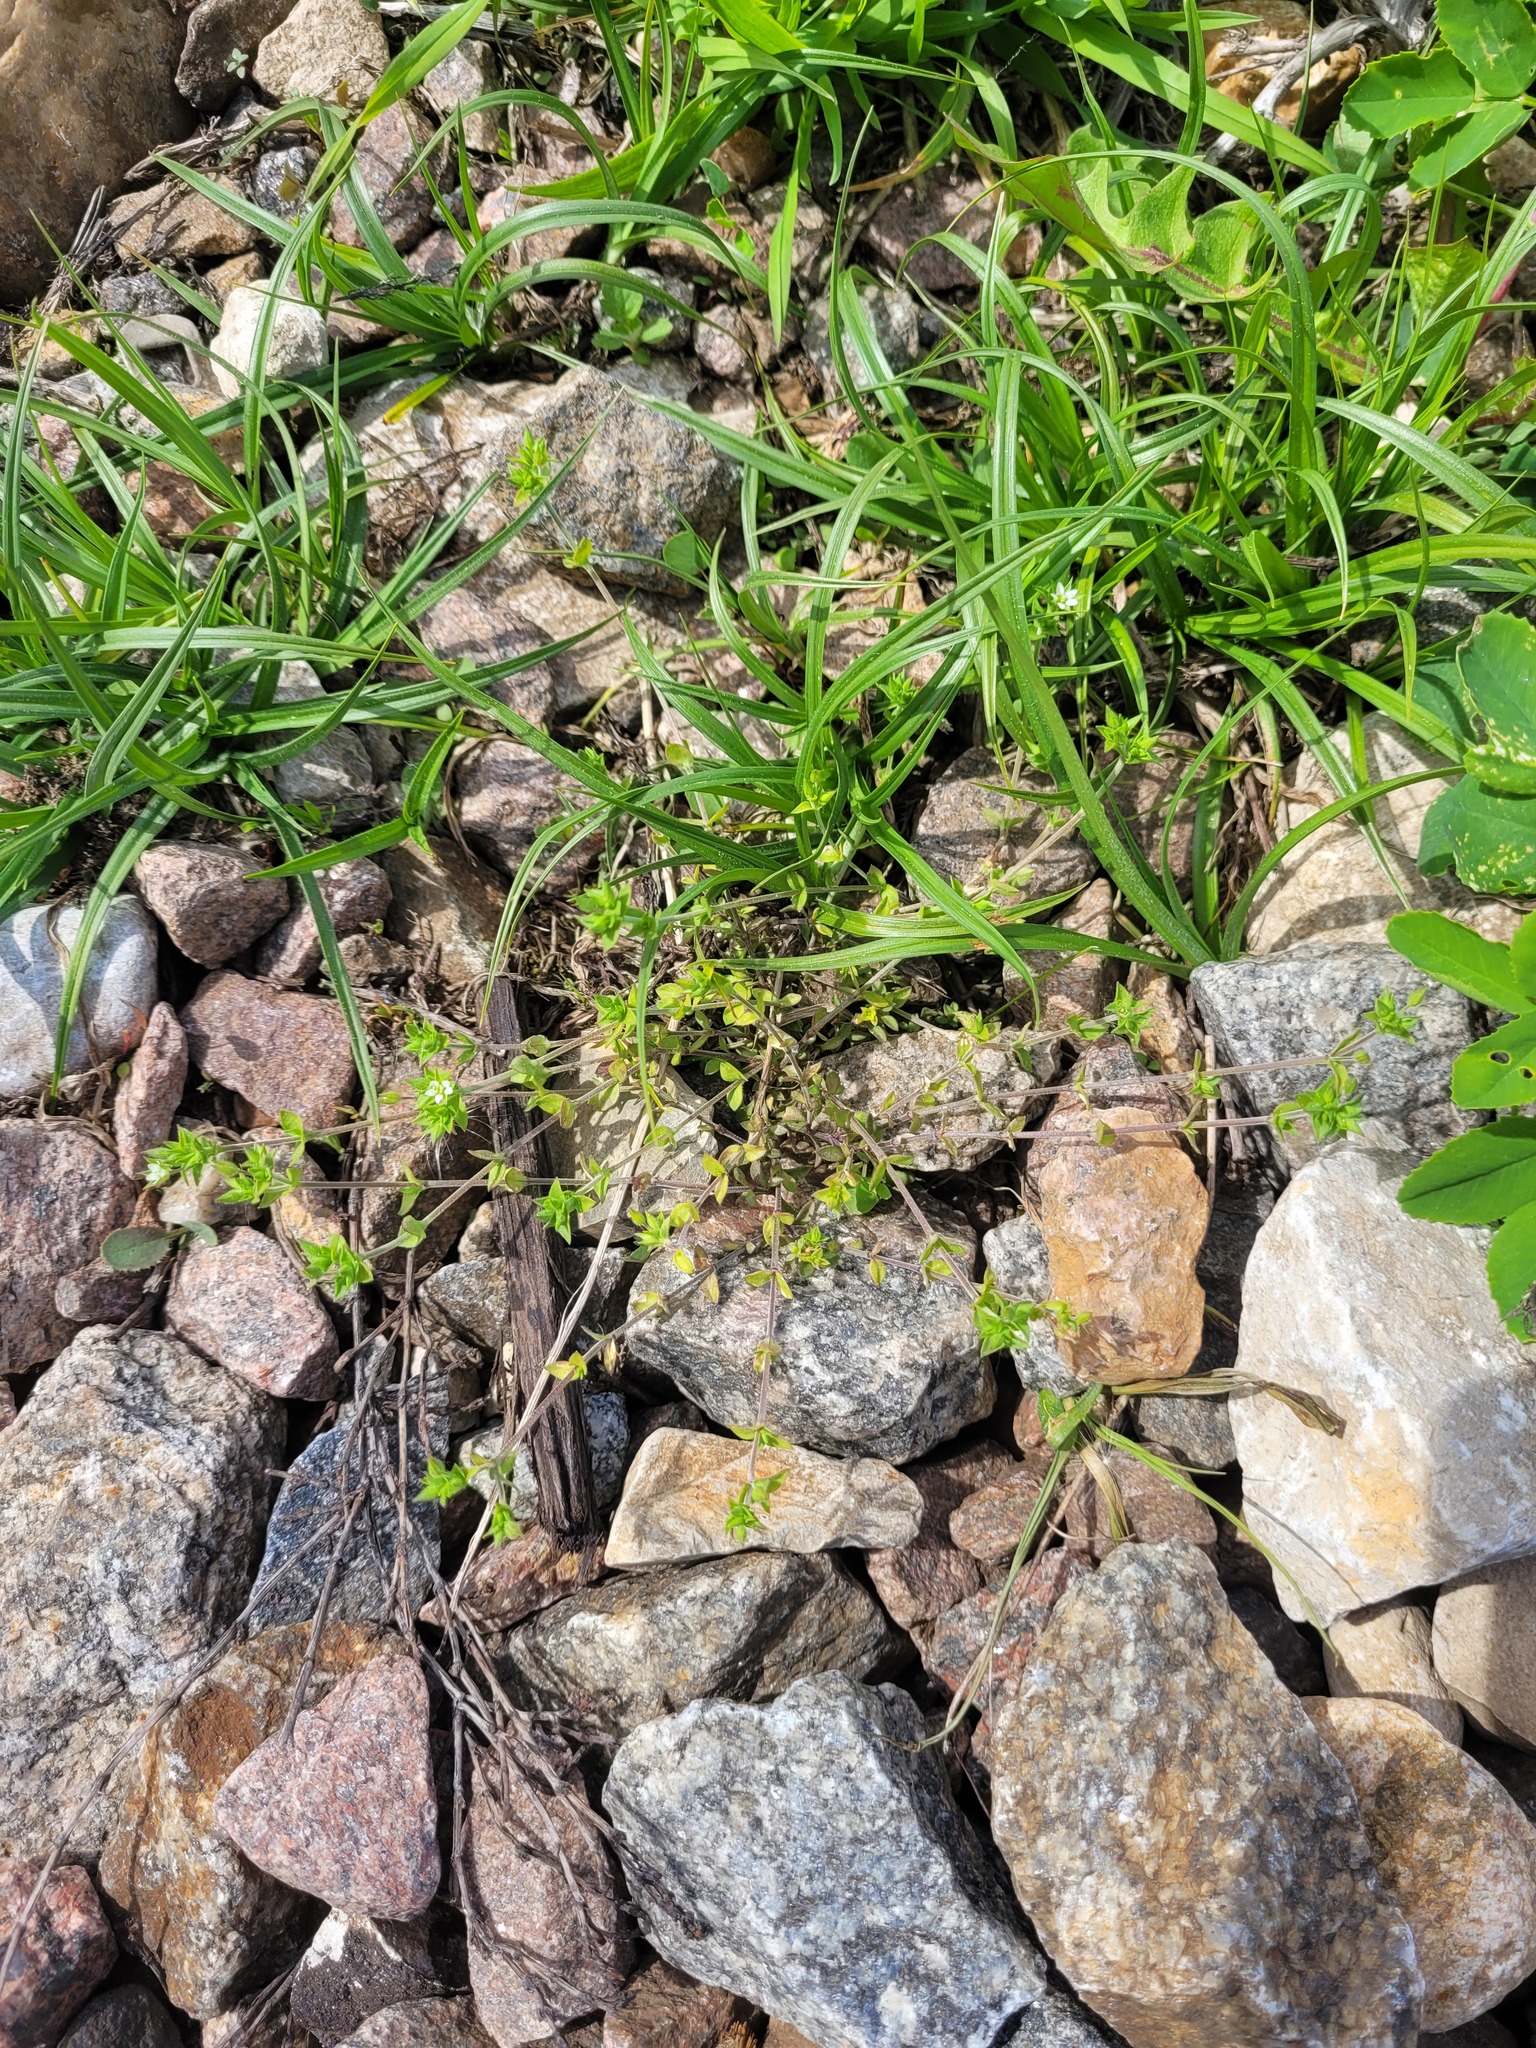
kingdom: Plantae
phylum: Tracheophyta
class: Magnoliopsida
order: Caryophyllales
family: Caryophyllaceae
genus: Arenaria
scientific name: Arenaria serpyllifolia
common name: Thyme-leaved sandwort
